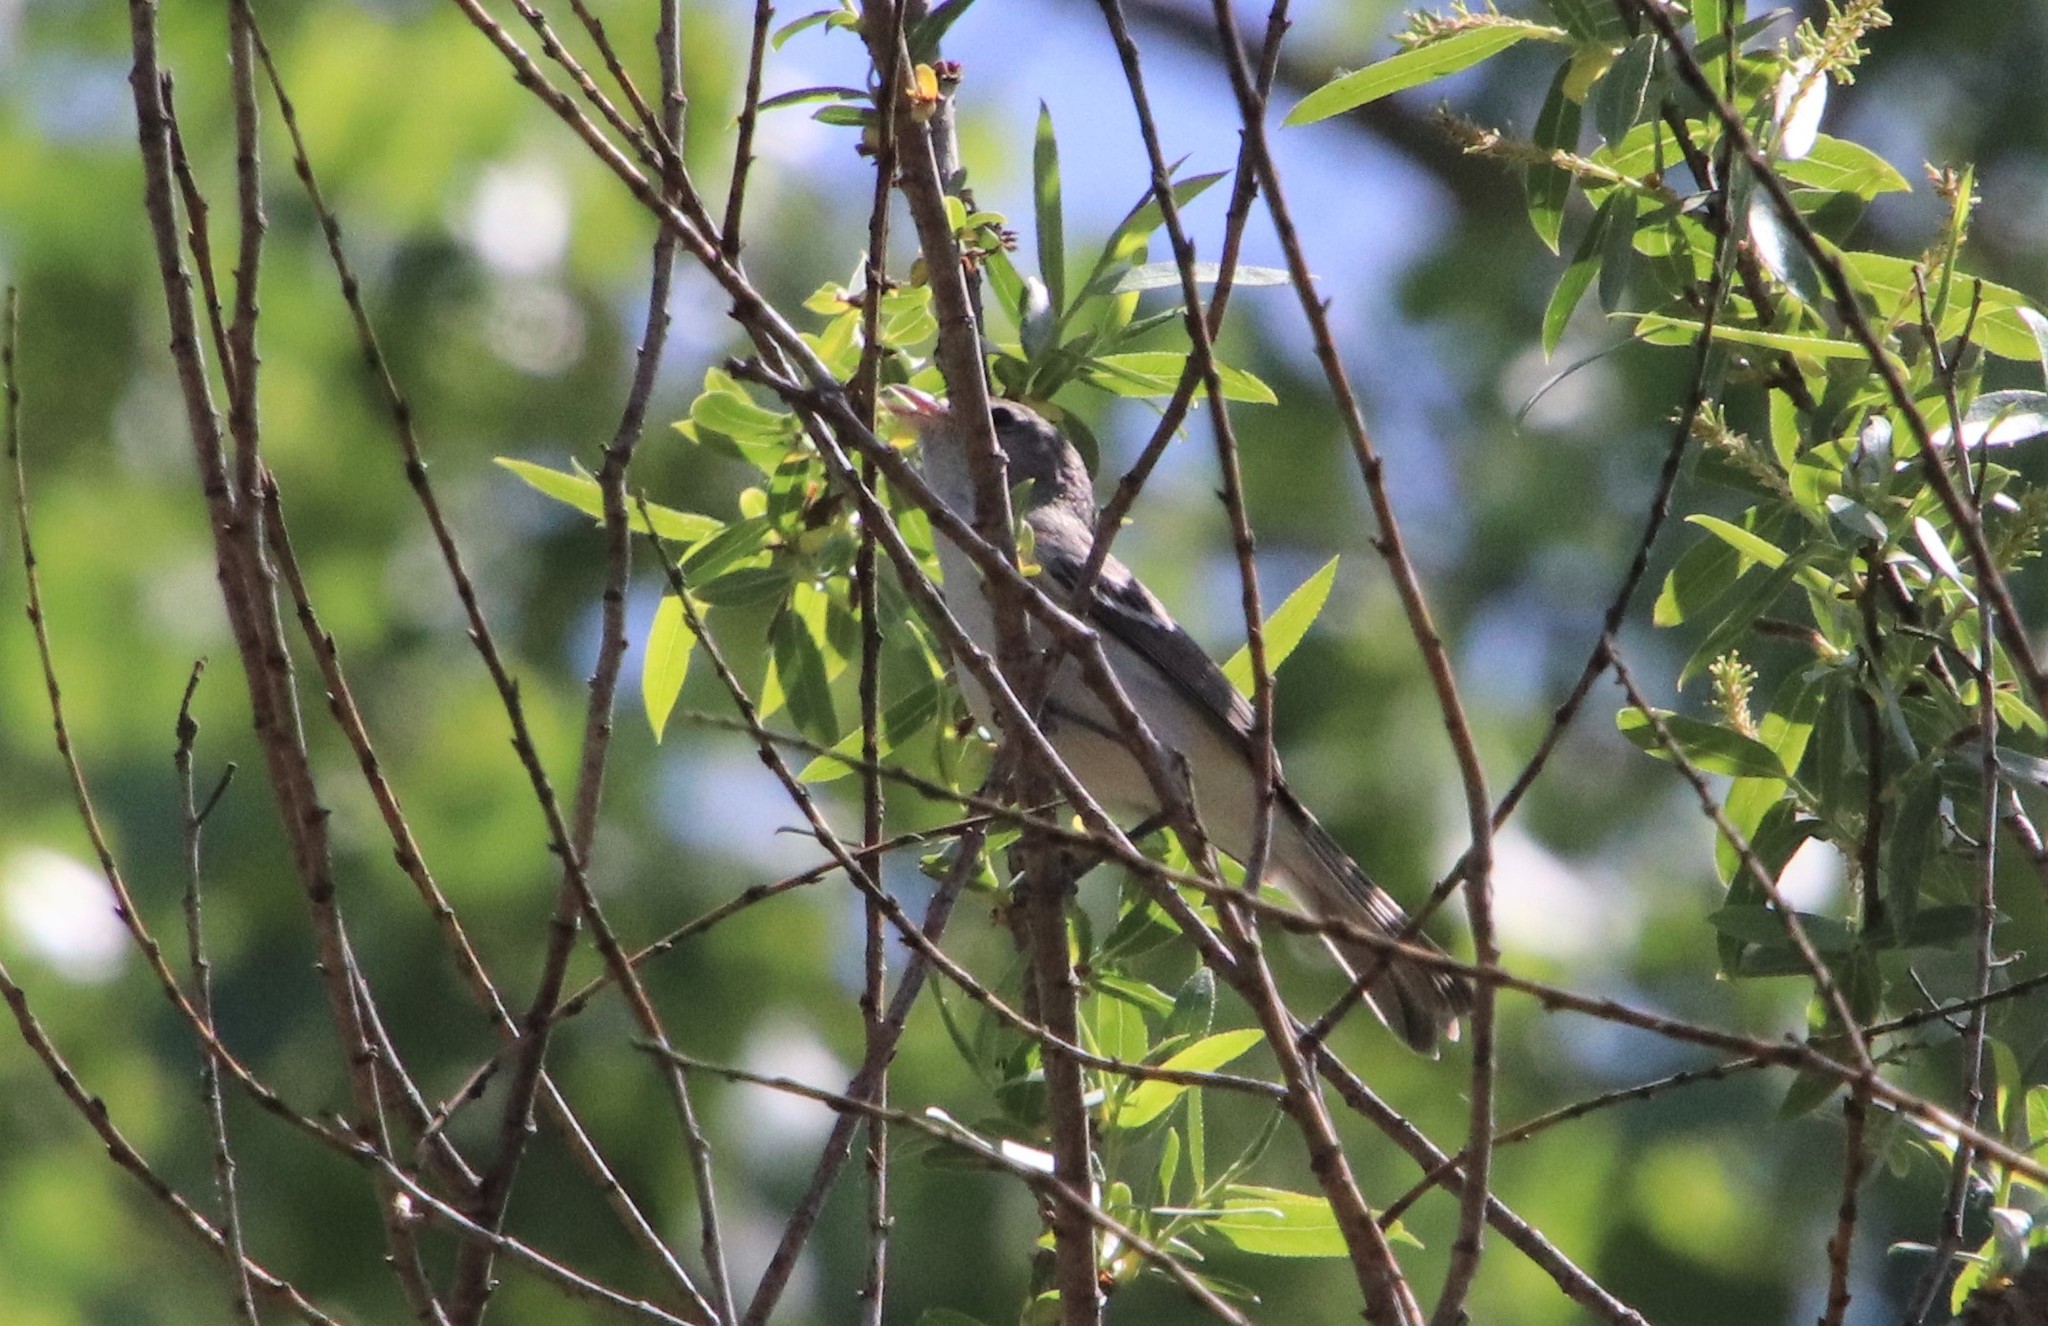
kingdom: Animalia
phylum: Chordata
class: Aves
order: Passeriformes
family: Vireonidae
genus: Vireo
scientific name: Vireo bellii
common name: Bell's vireo
